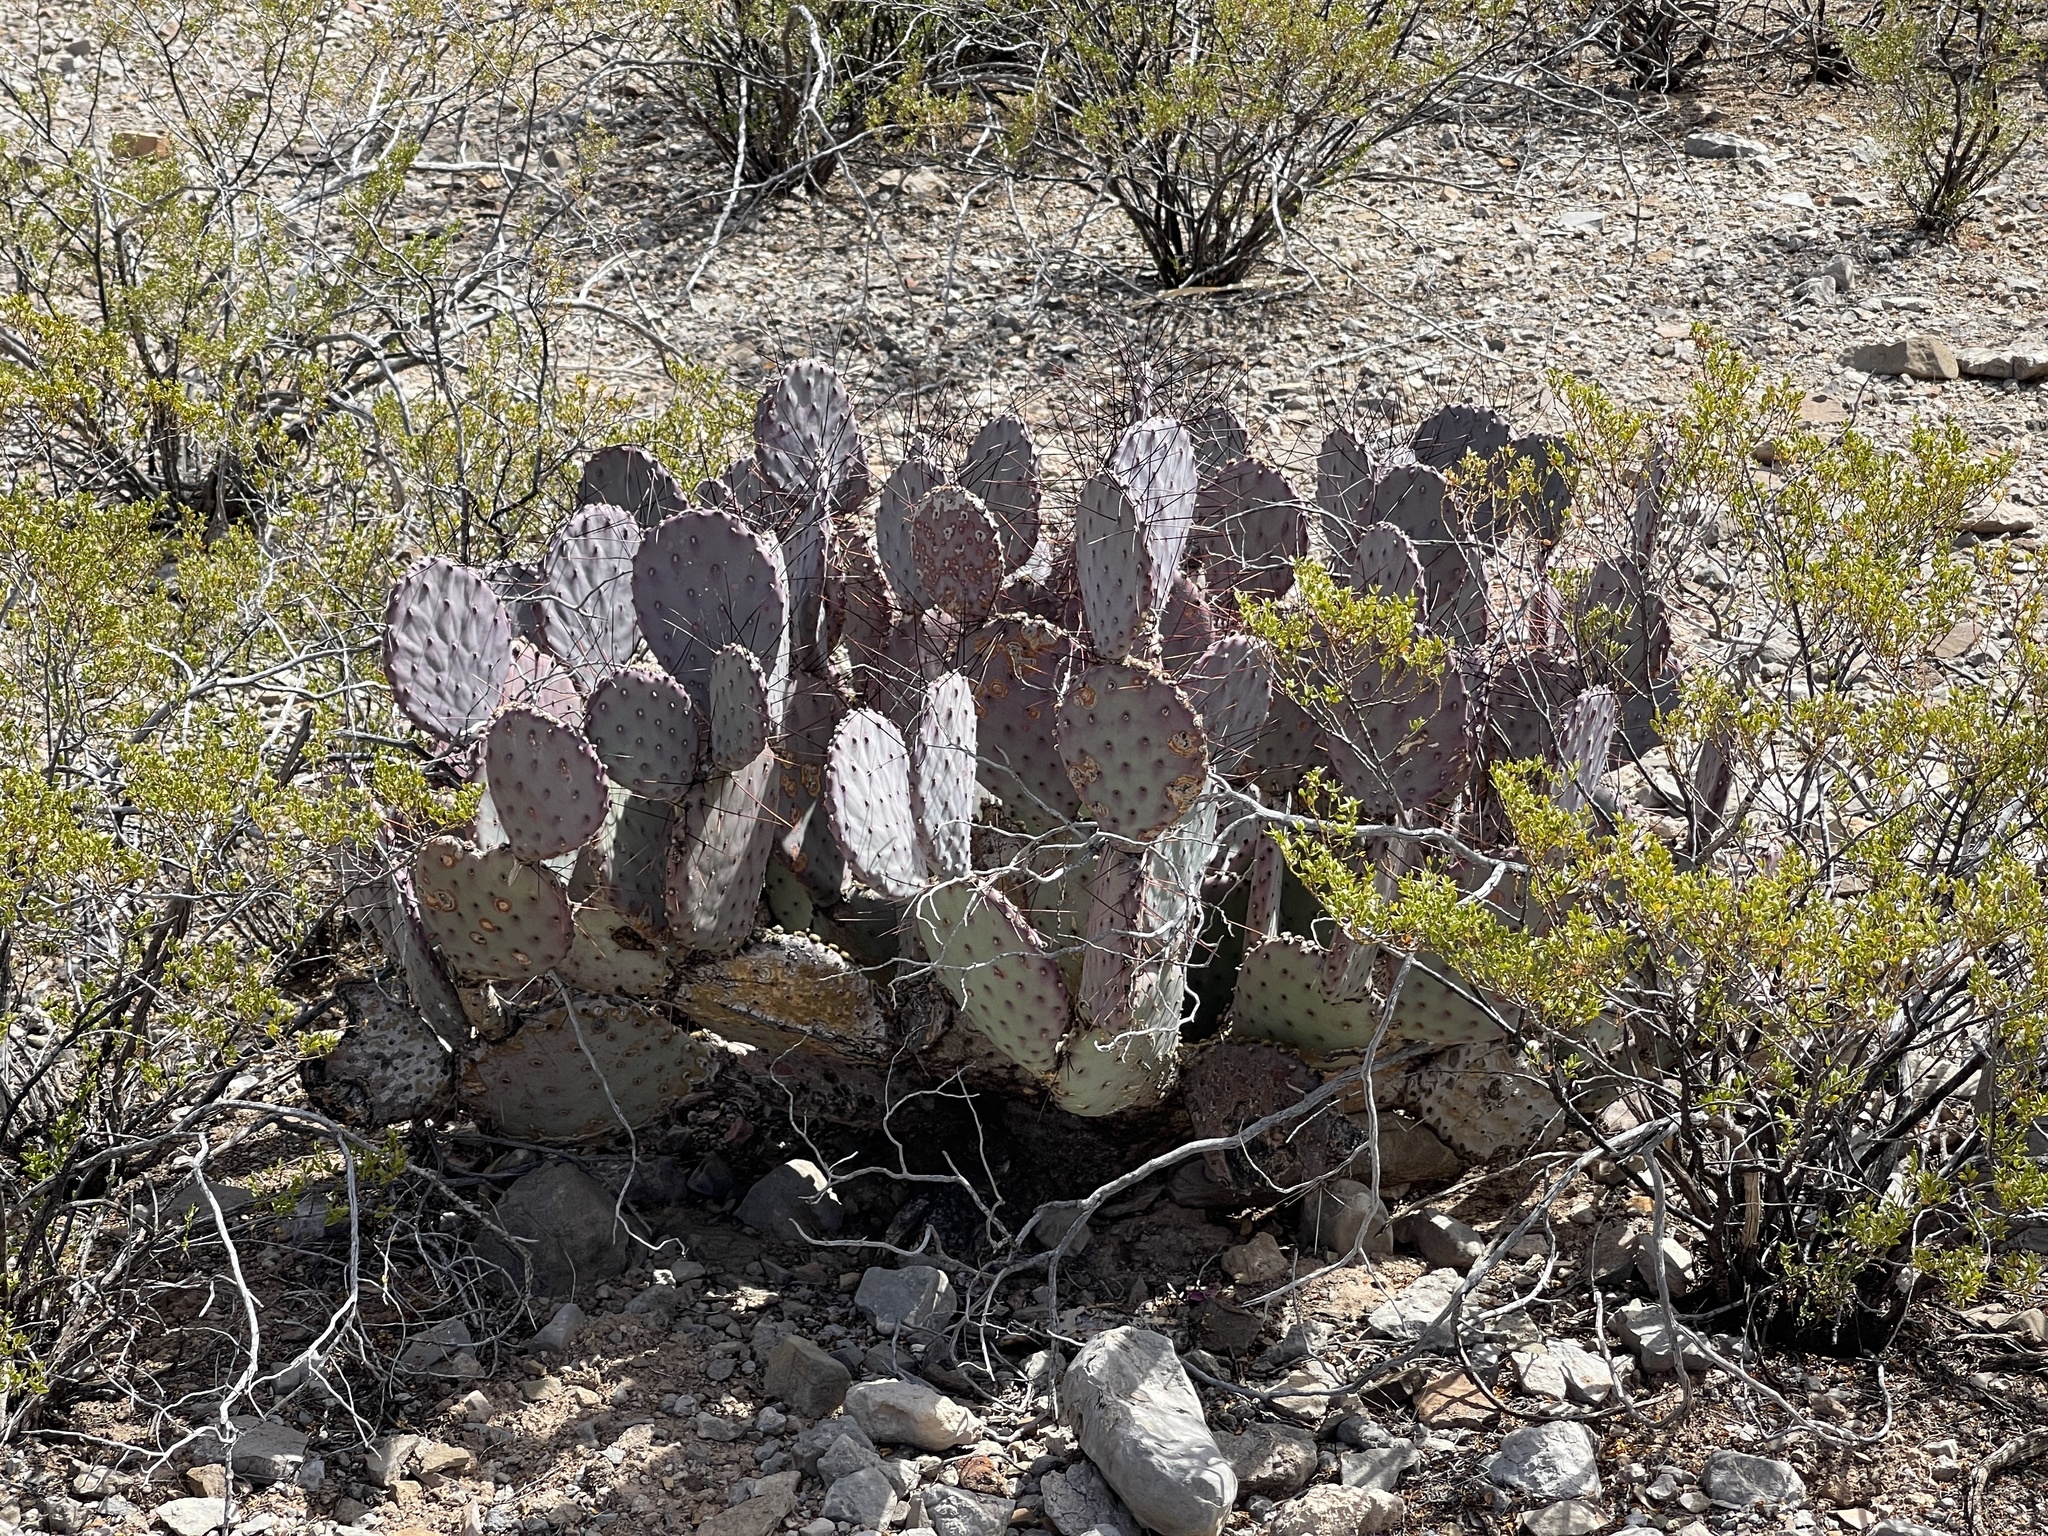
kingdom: Plantae
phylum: Tracheophyta
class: Magnoliopsida
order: Caryophyllales
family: Cactaceae
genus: Opuntia
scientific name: Opuntia macrocentra
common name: Purple prickly-pear
